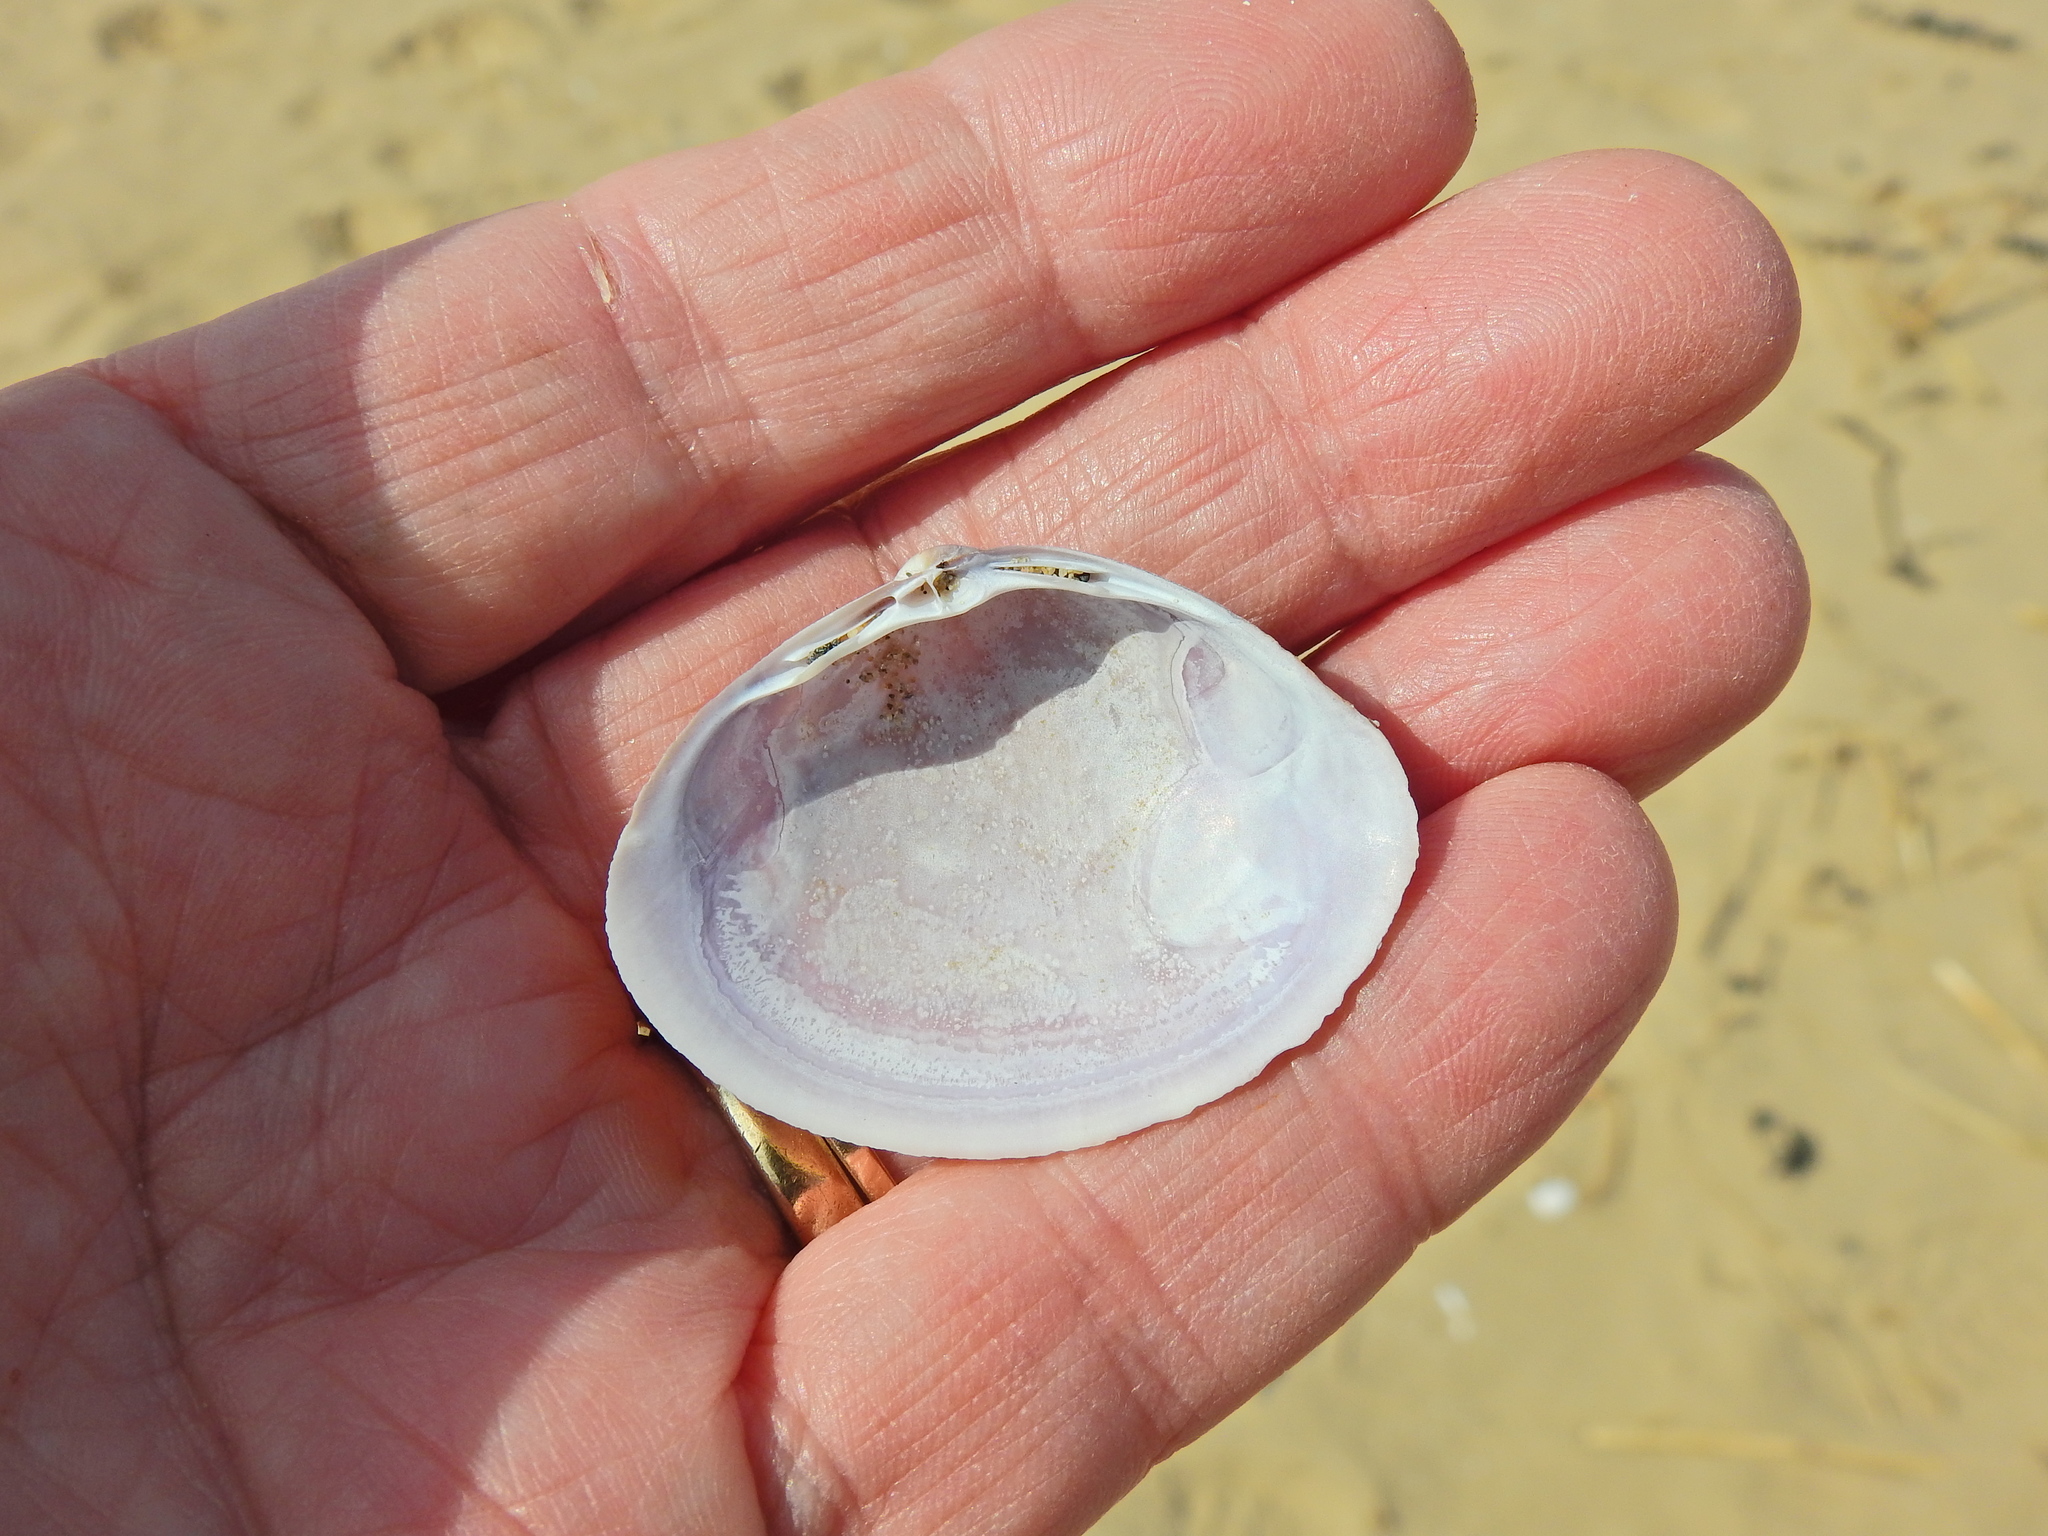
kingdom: Animalia
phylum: Mollusca
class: Bivalvia
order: Venerida
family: Mactridae
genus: Mactra
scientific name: Mactra stultorum
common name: Rayed trough shell
